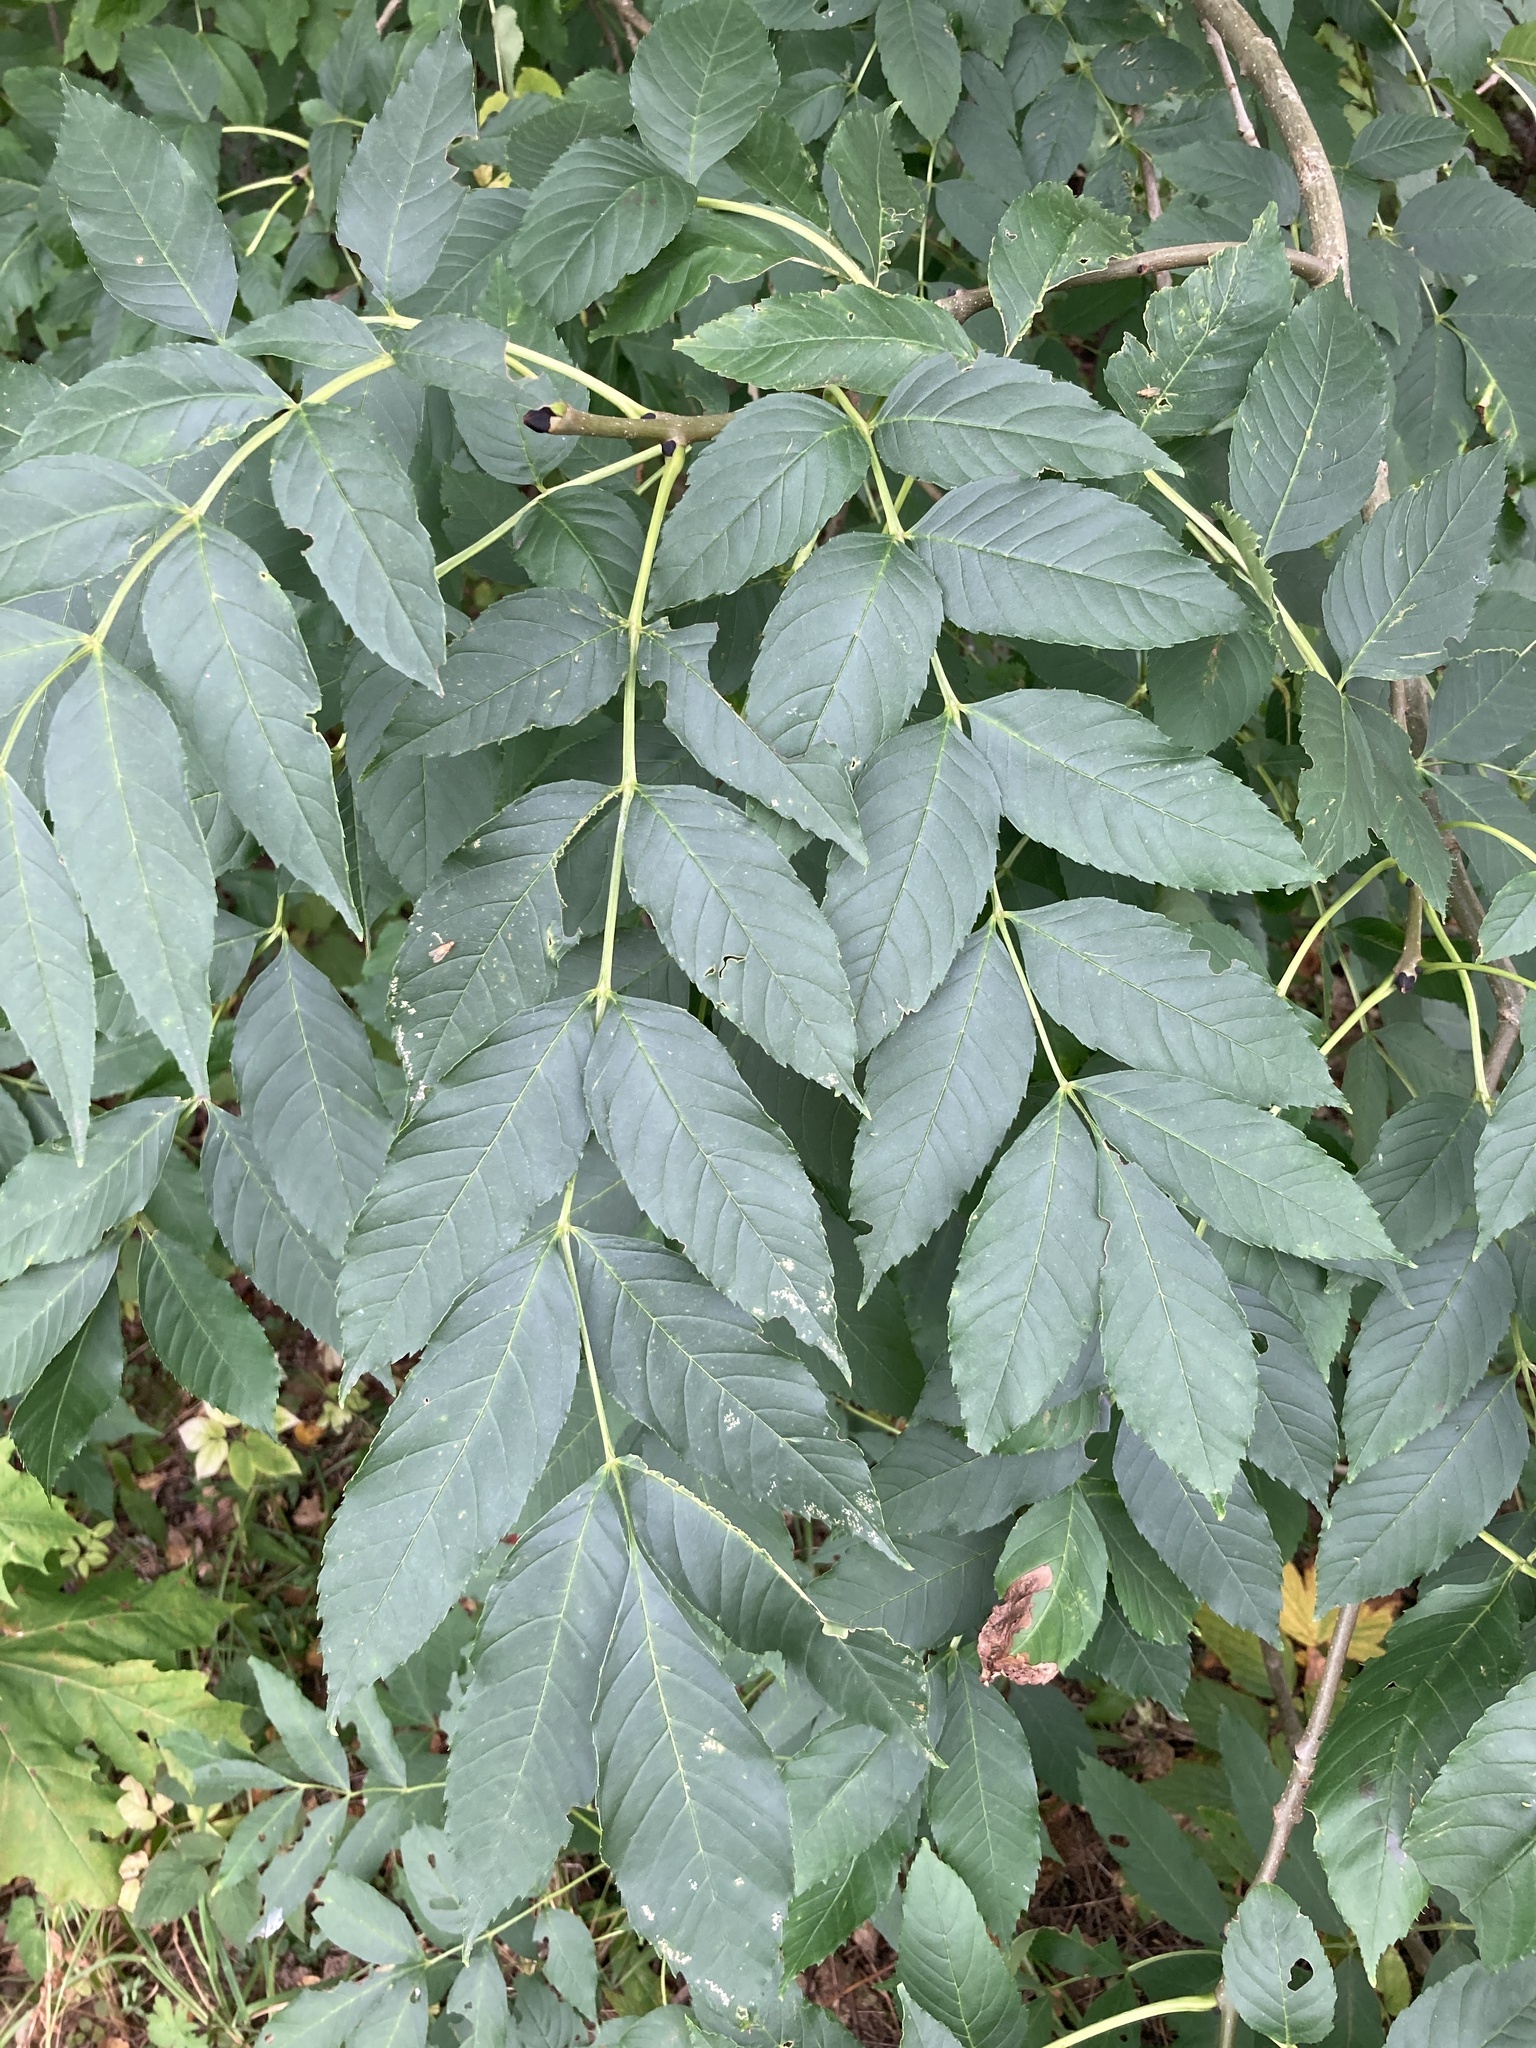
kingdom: Plantae
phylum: Tracheophyta
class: Magnoliopsida
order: Lamiales
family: Oleaceae
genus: Fraxinus
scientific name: Fraxinus excelsior
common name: European ash
